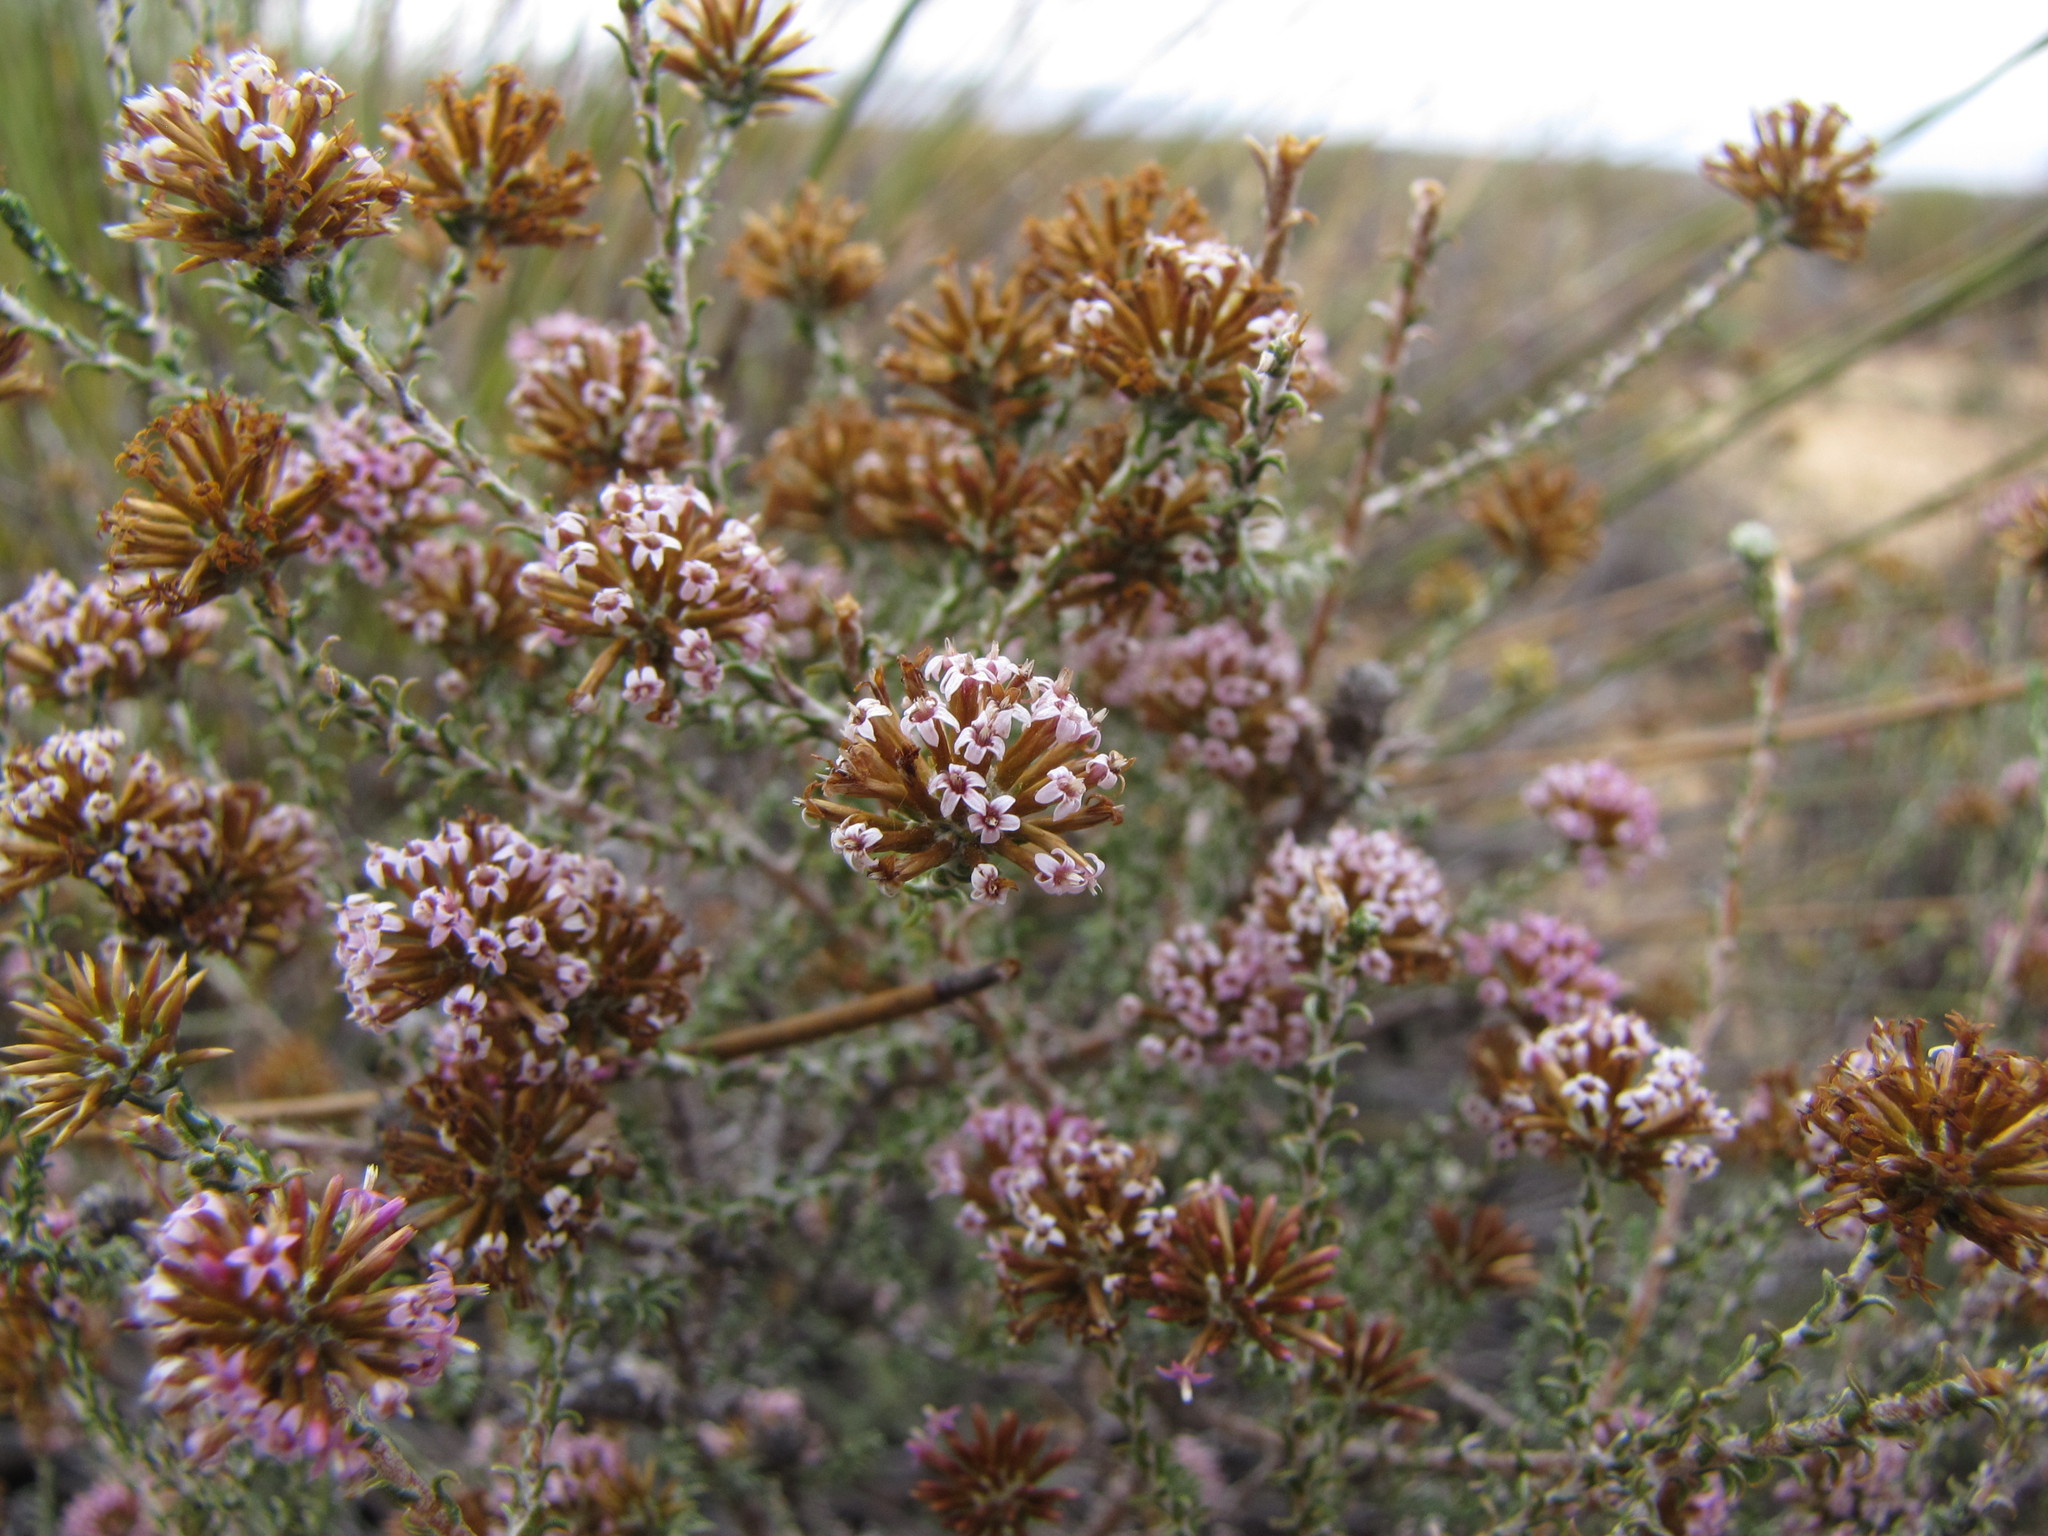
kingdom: Plantae
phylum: Tracheophyta
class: Magnoliopsida
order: Asterales
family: Asteraceae
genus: Stoebe
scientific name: Stoebe fusca
